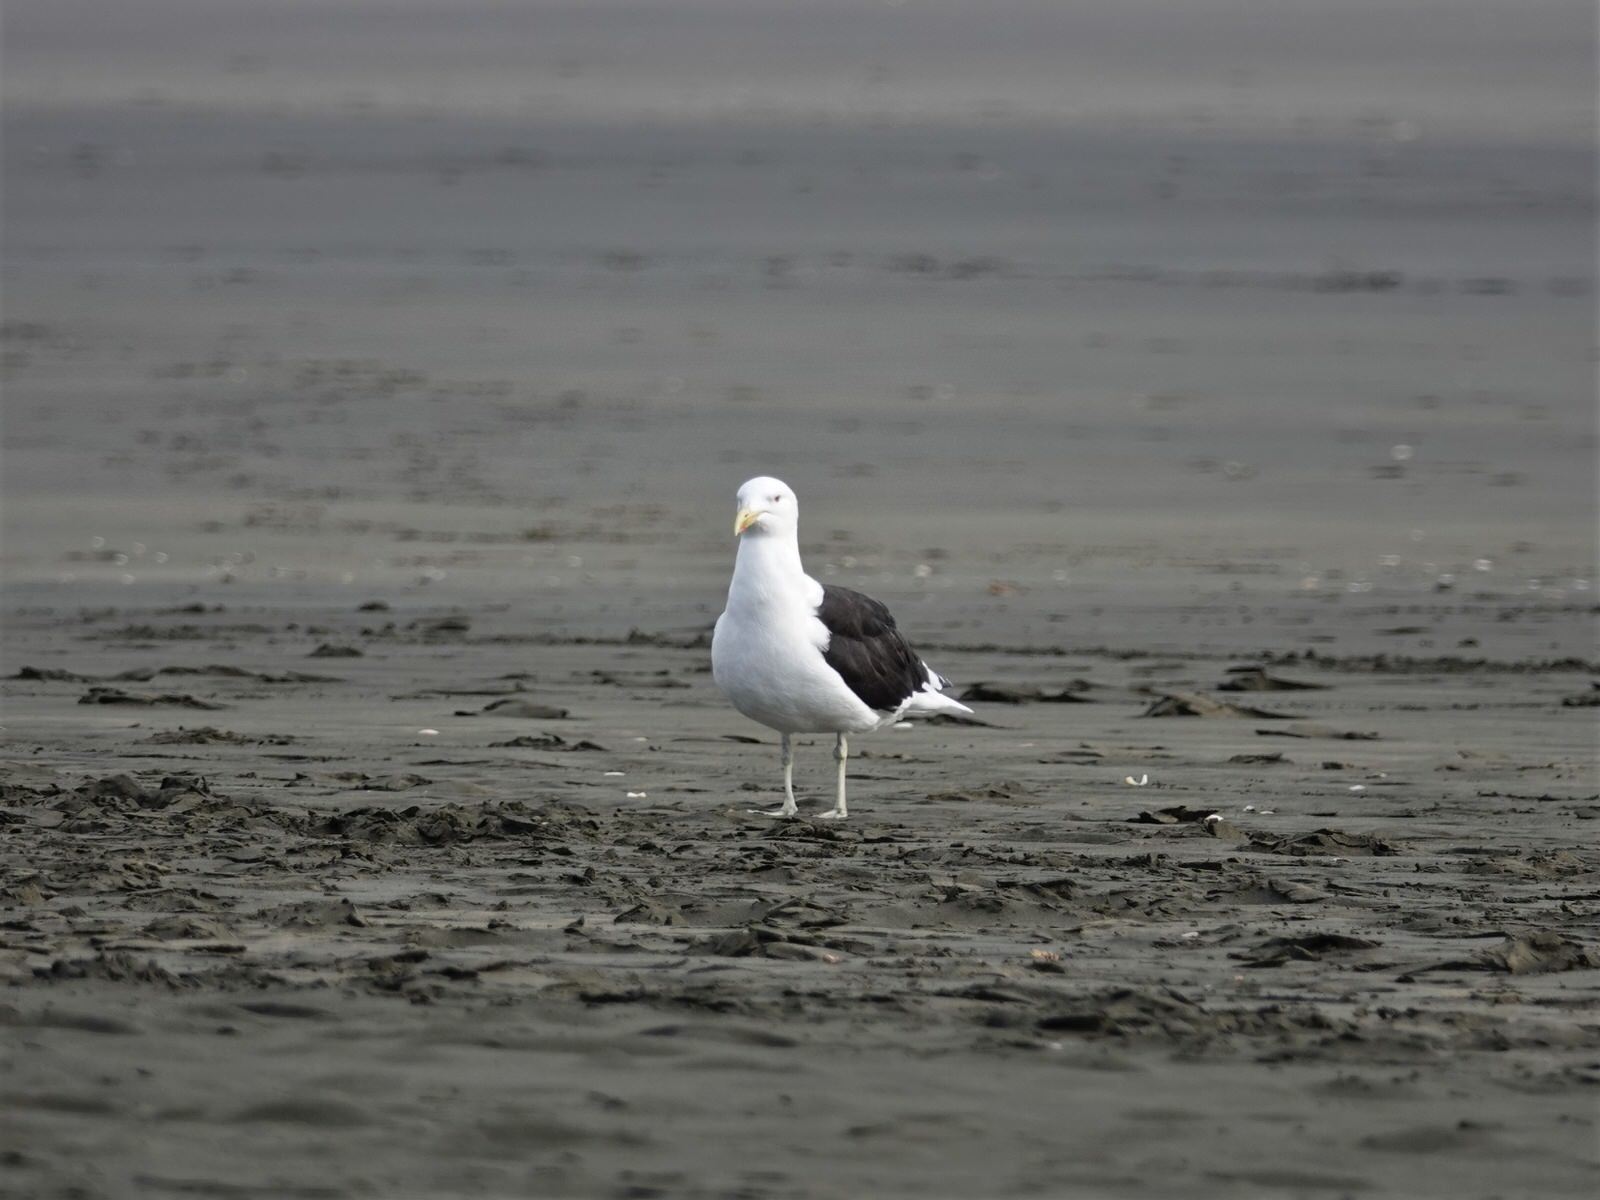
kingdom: Animalia
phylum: Chordata
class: Aves
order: Charadriiformes
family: Laridae
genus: Larus
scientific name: Larus dominicanus
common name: Kelp gull
